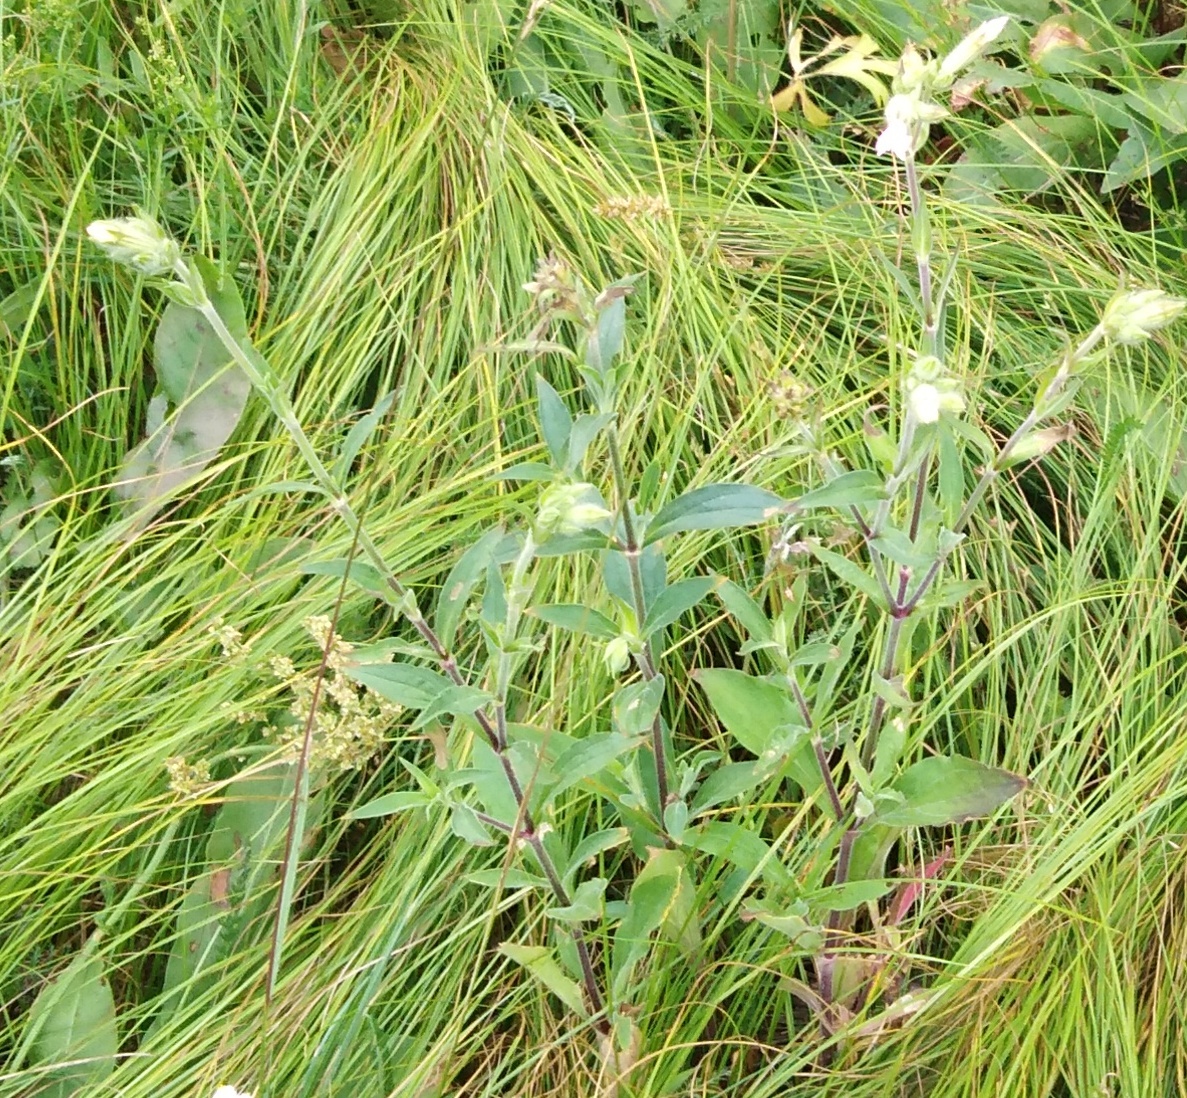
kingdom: Plantae
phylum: Tracheophyta
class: Magnoliopsida
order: Caryophyllales
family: Caryophyllaceae
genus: Silene
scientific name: Silene latifolia
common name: White campion
